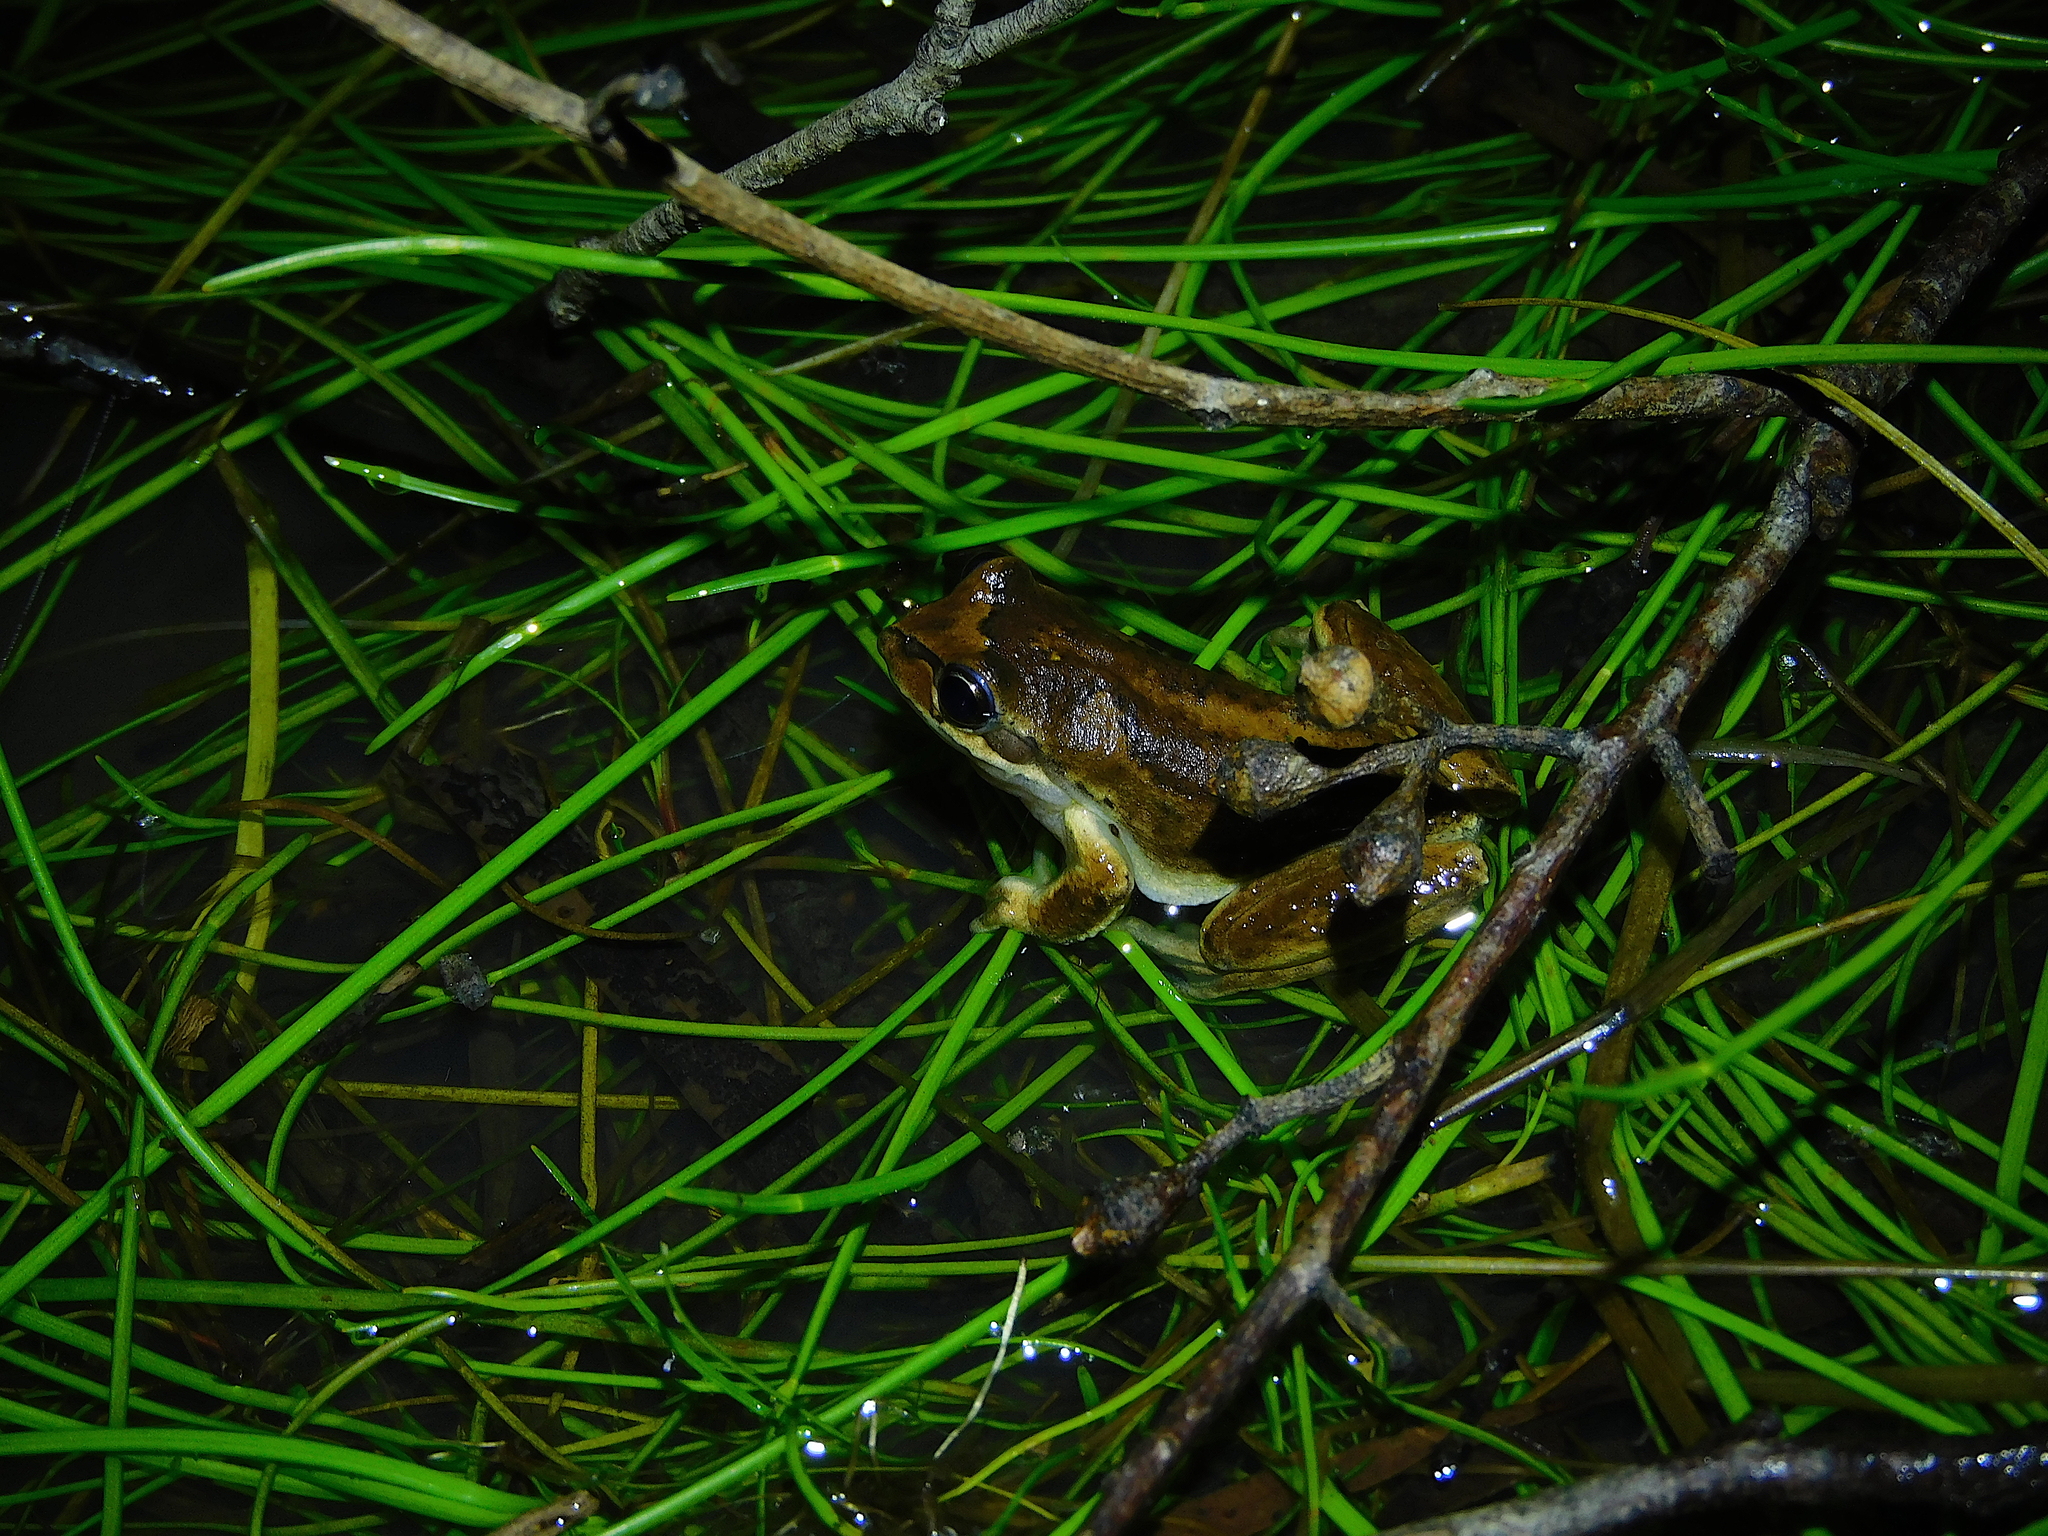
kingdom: Animalia
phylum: Chordata
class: Amphibia
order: Anura
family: Pelodryadidae
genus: Litoria
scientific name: Litoria ewingii
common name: Southern brown tree frog
